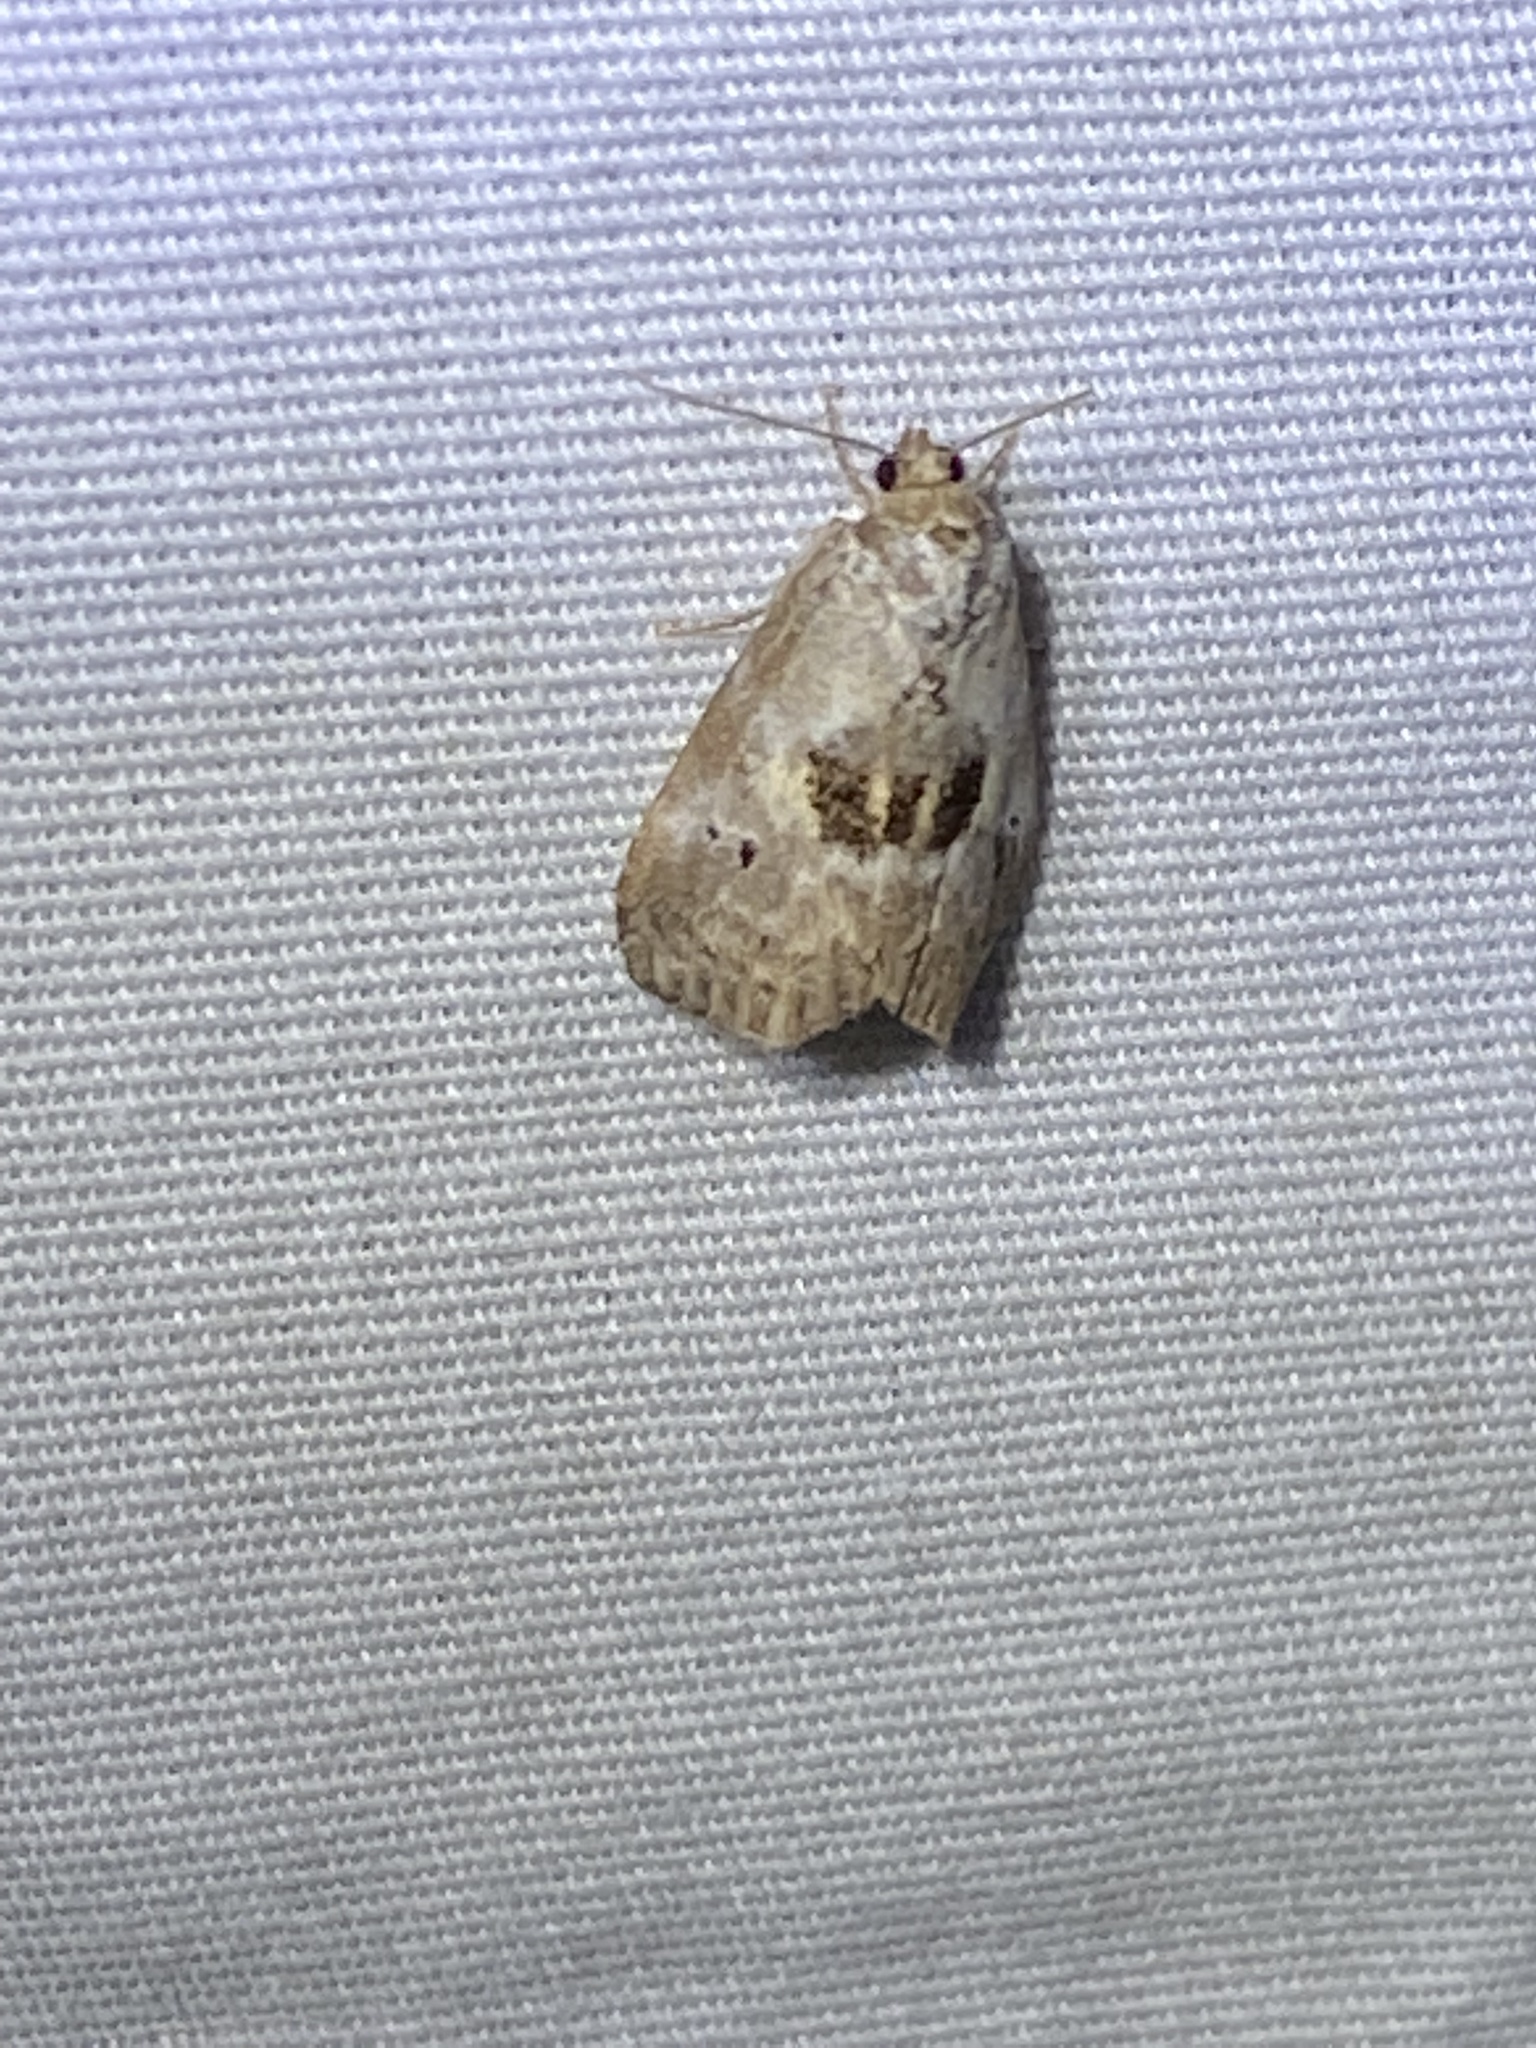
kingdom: Animalia
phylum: Arthropoda
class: Insecta
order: Lepidoptera
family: Erebidae
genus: Hyperstrotia
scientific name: Hyperstrotia secta
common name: Black-patched graylet
